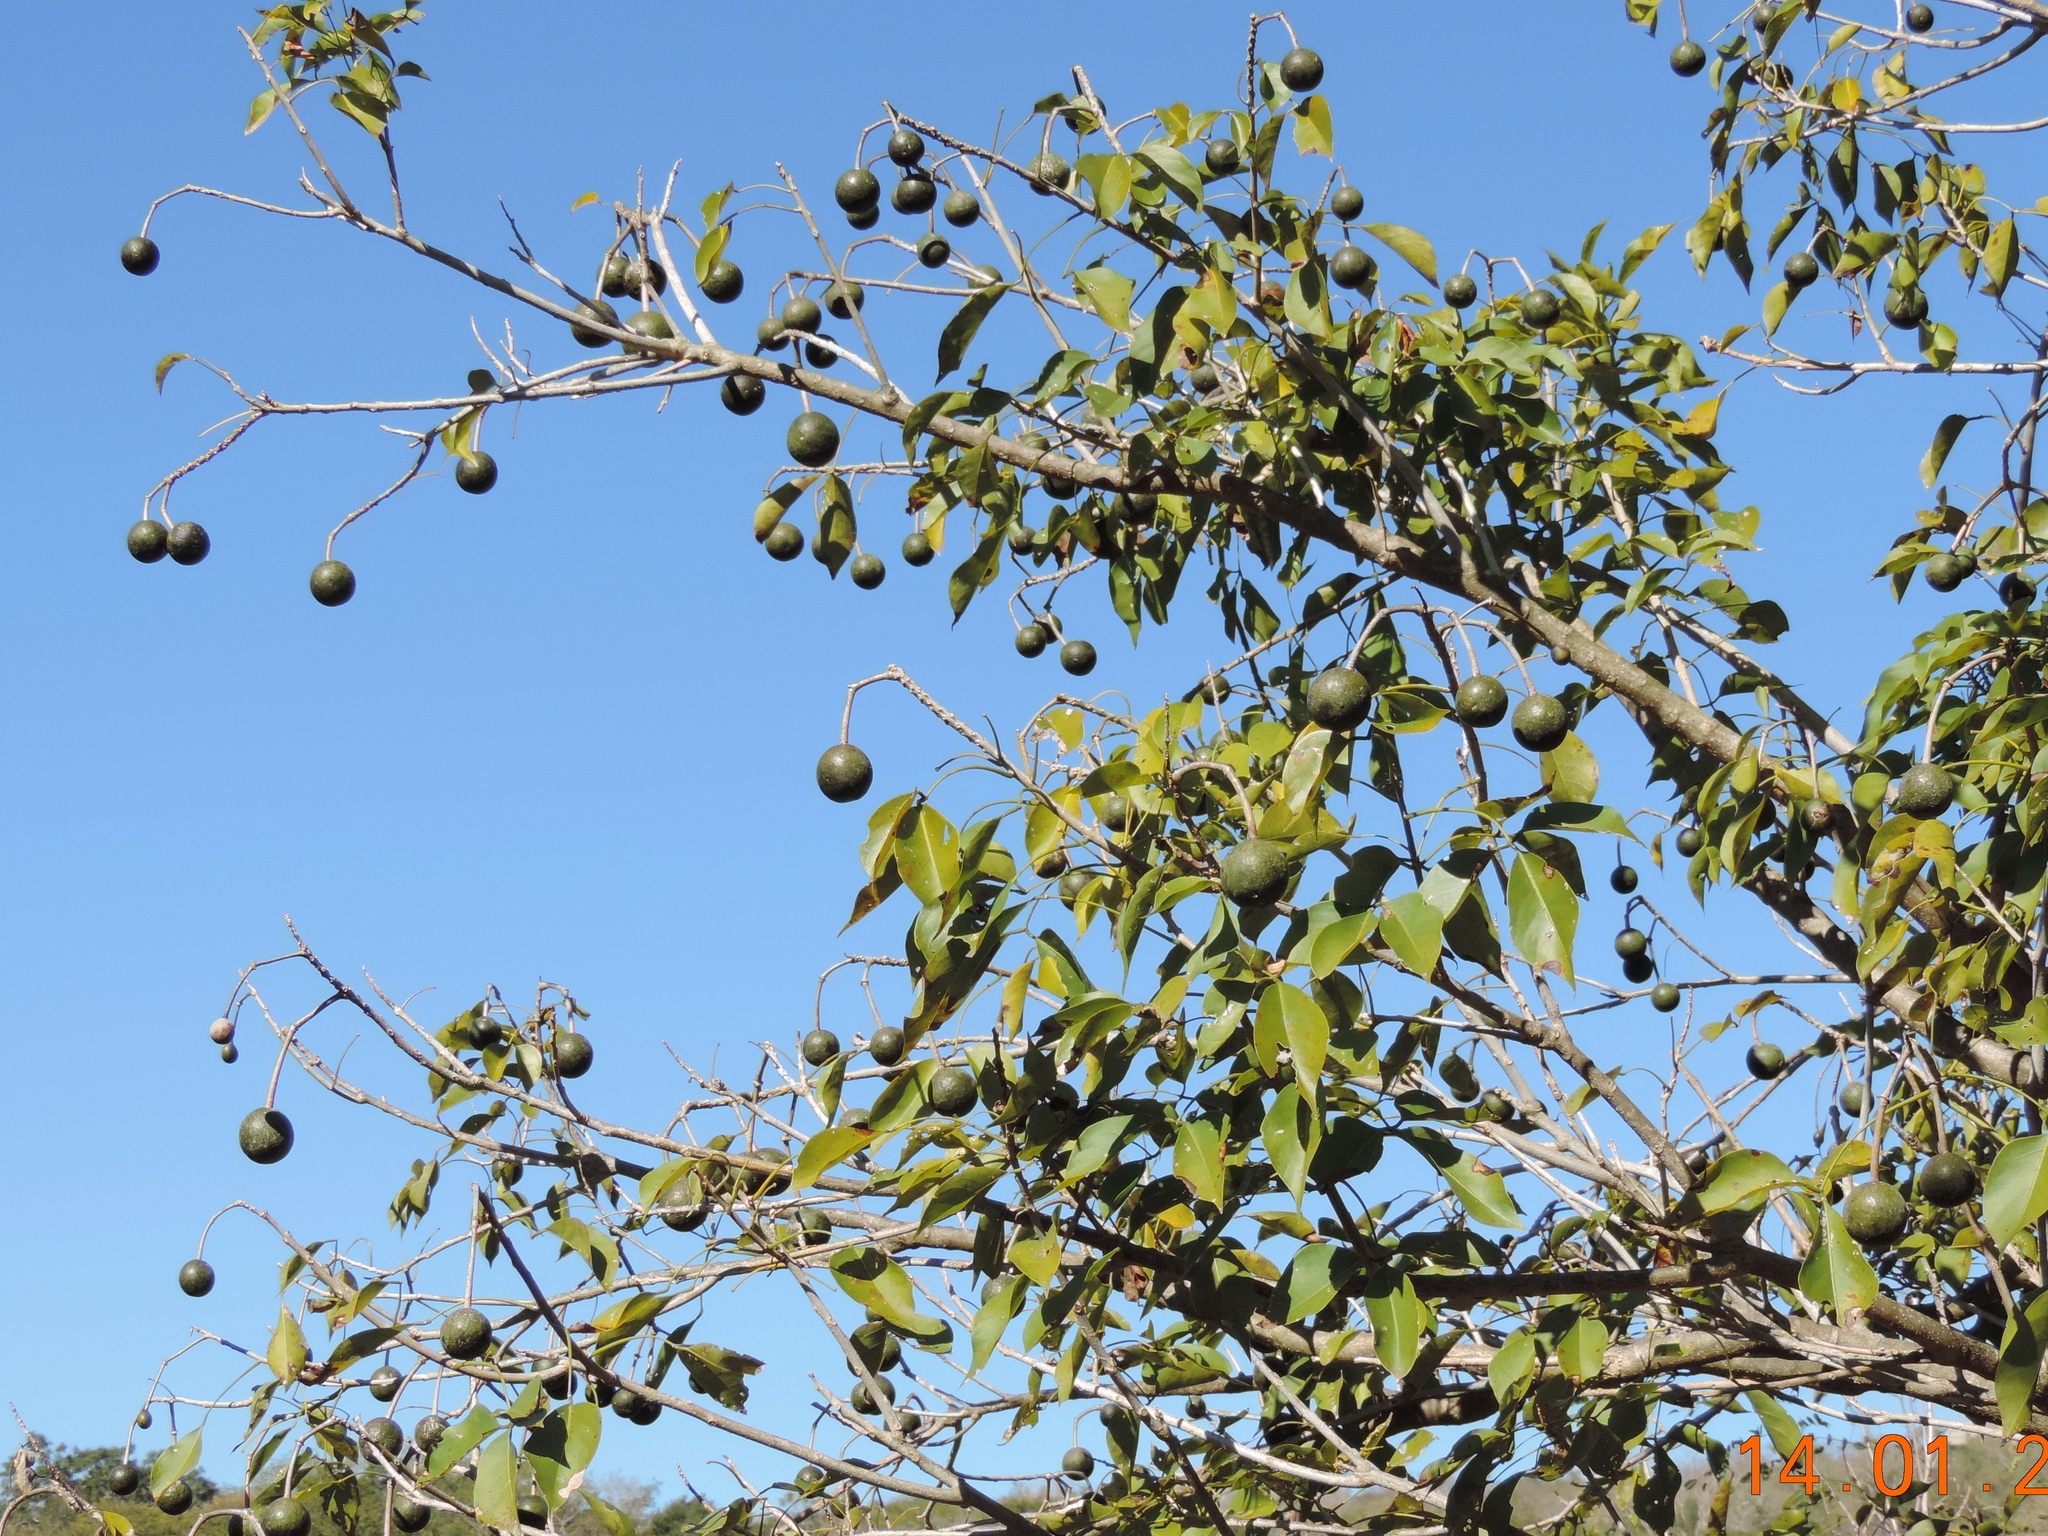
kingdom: Plantae
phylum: Tracheophyta
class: Magnoliopsida
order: Brassicales
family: Capparaceae
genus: Crateva
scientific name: Crateva tapia
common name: Garlic-pear
